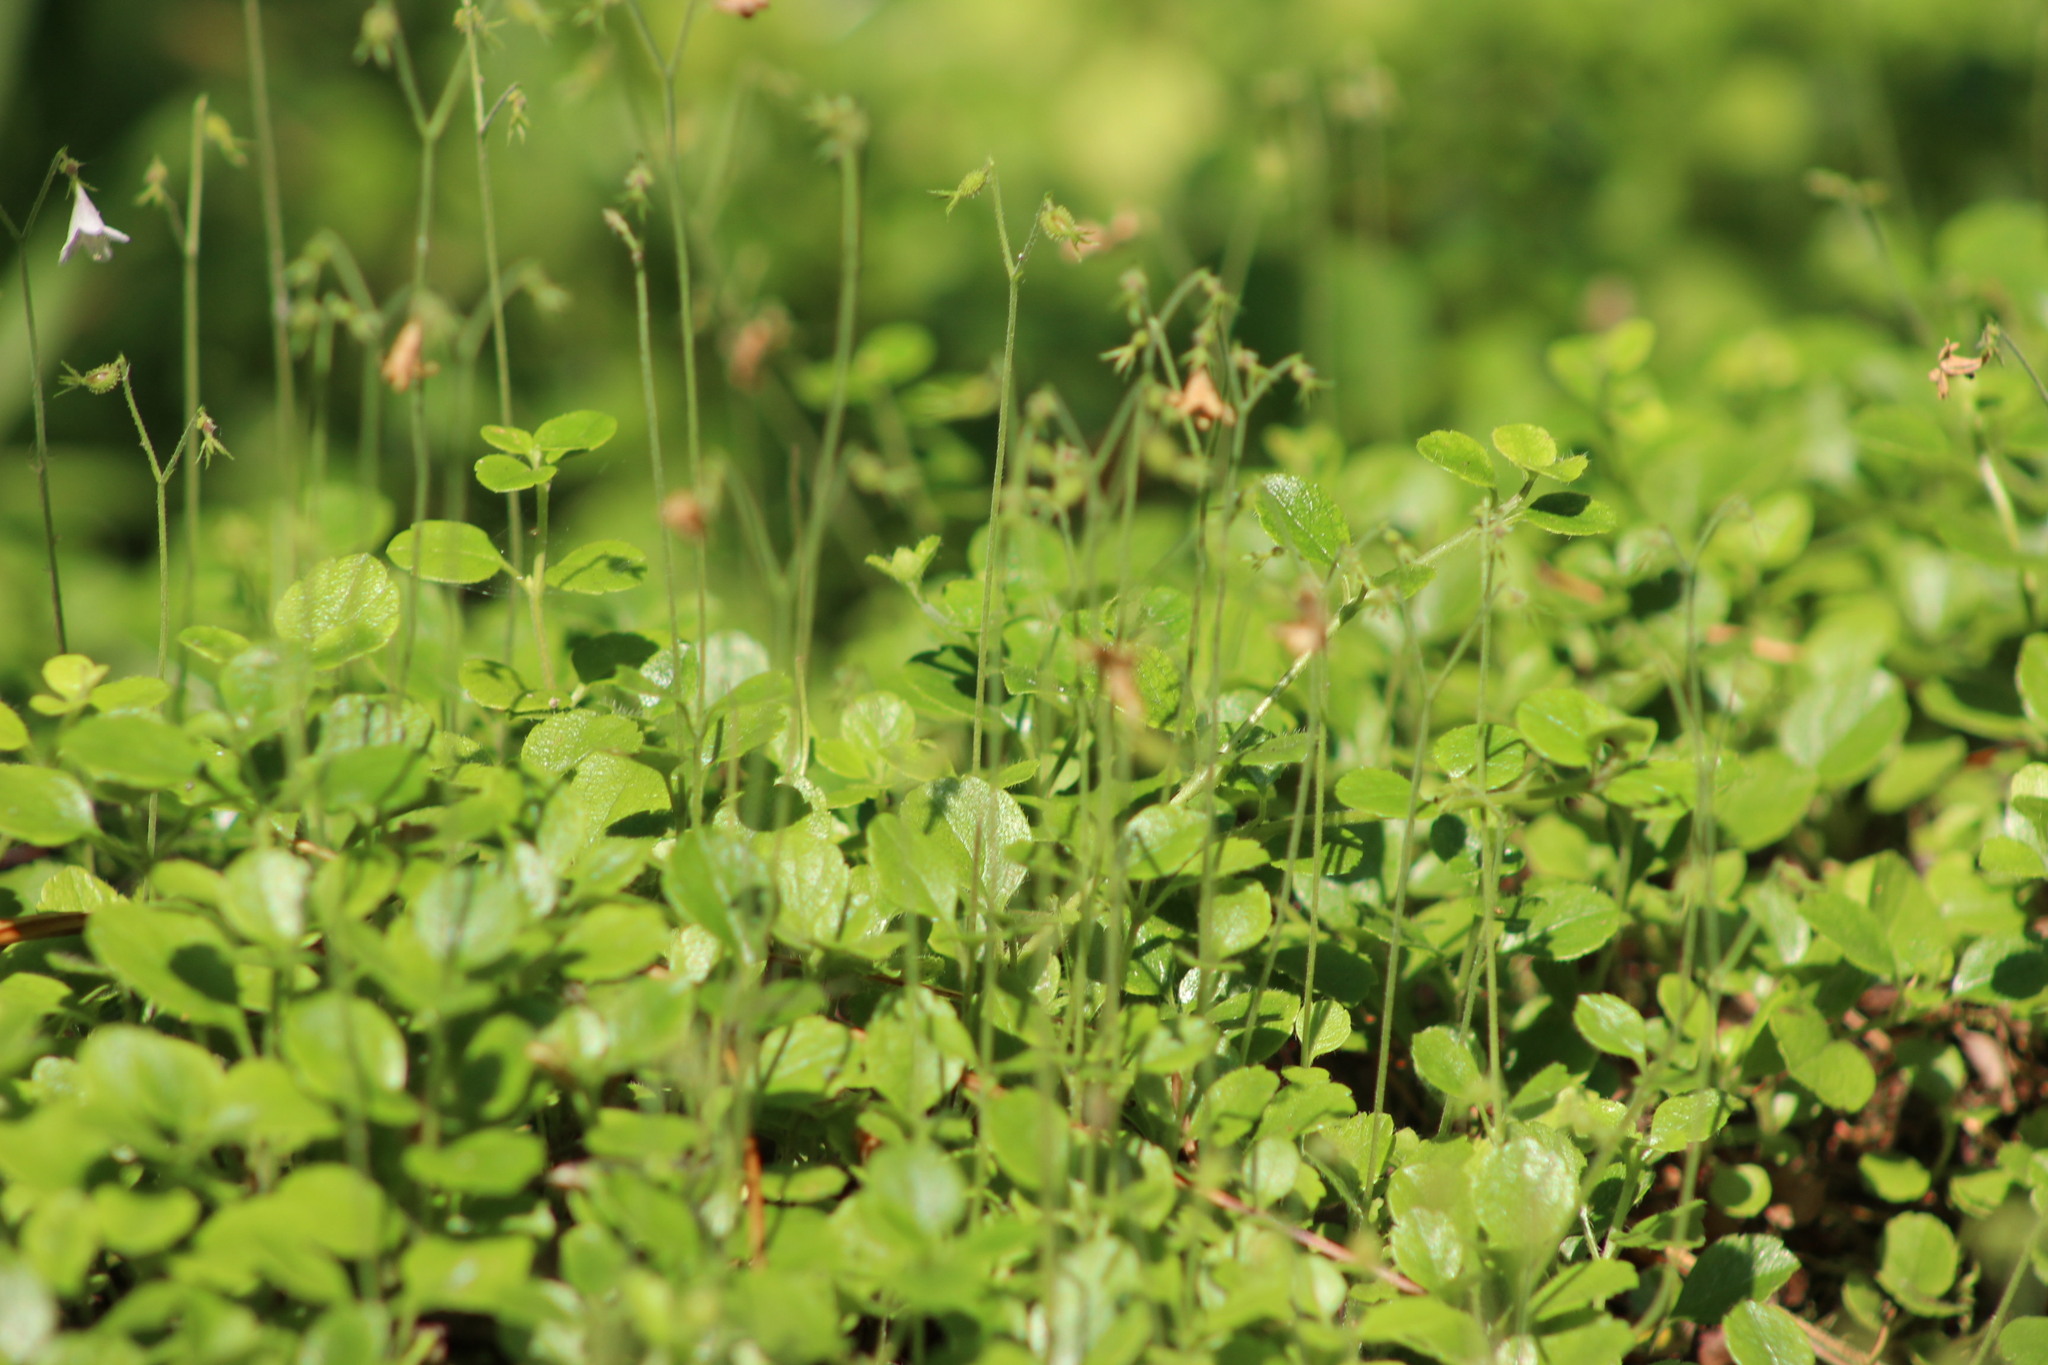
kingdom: Plantae
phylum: Tracheophyta
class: Magnoliopsida
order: Dipsacales
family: Caprifoliaceae
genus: Linnaea
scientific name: Linnaea borealis
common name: Twinflower
